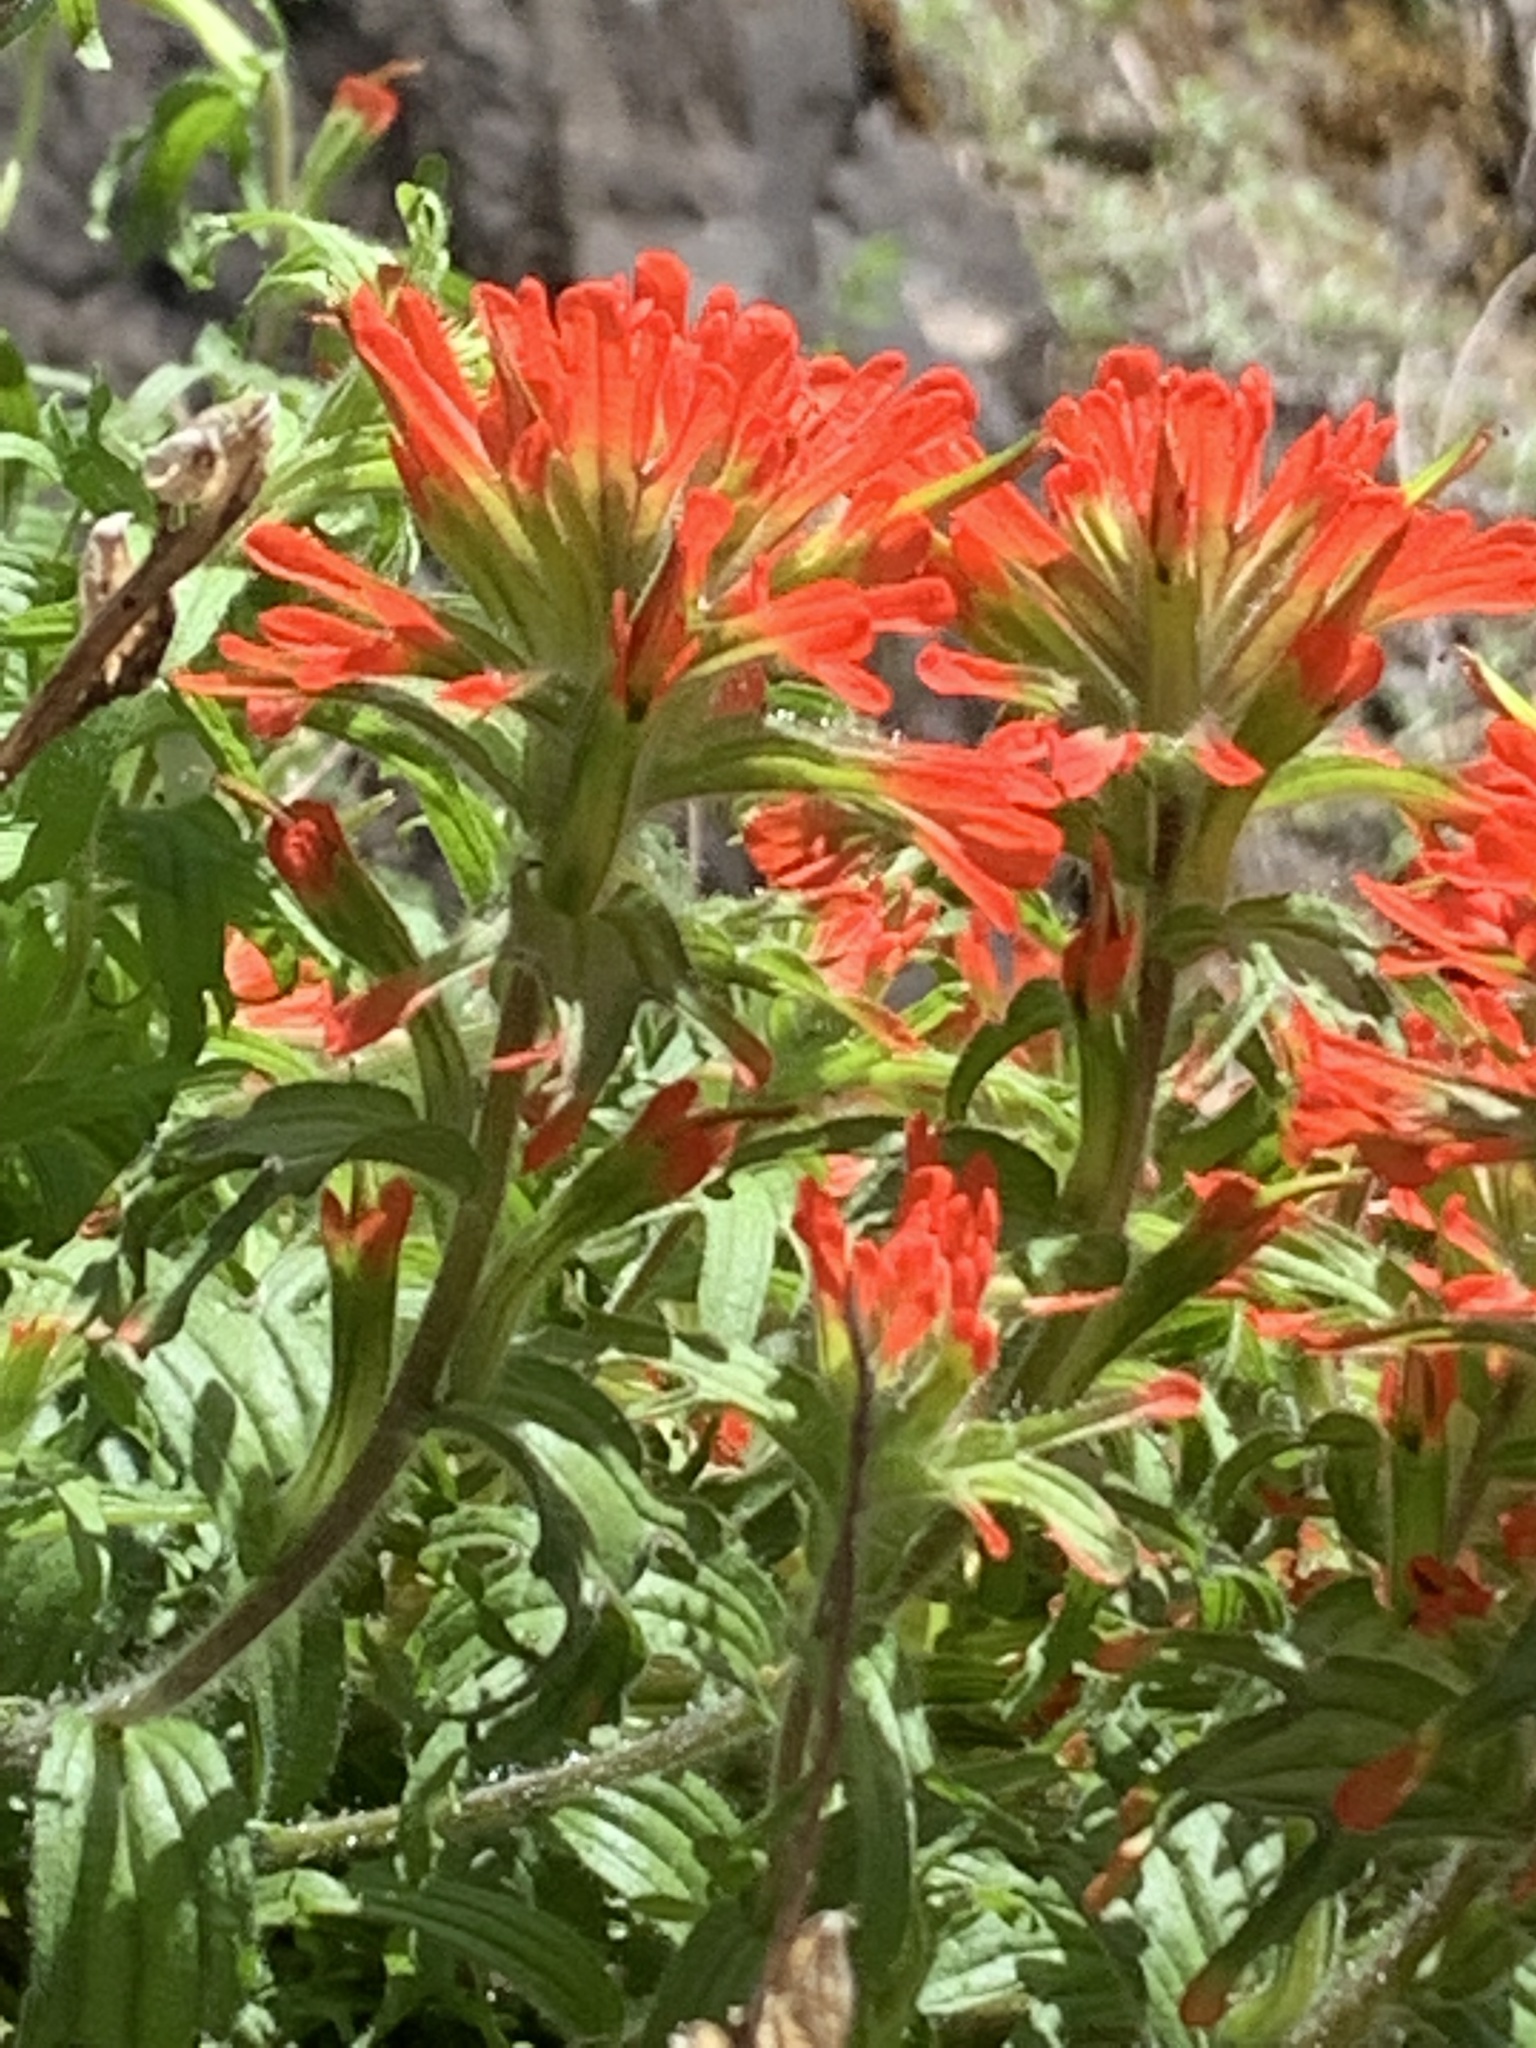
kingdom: Plantae
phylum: Tracheophyta
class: Magnoliopsida
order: Lamiales
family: Orobanchaceae
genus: Castilleja
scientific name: Castilleja hispida
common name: Bristly paintbrush
